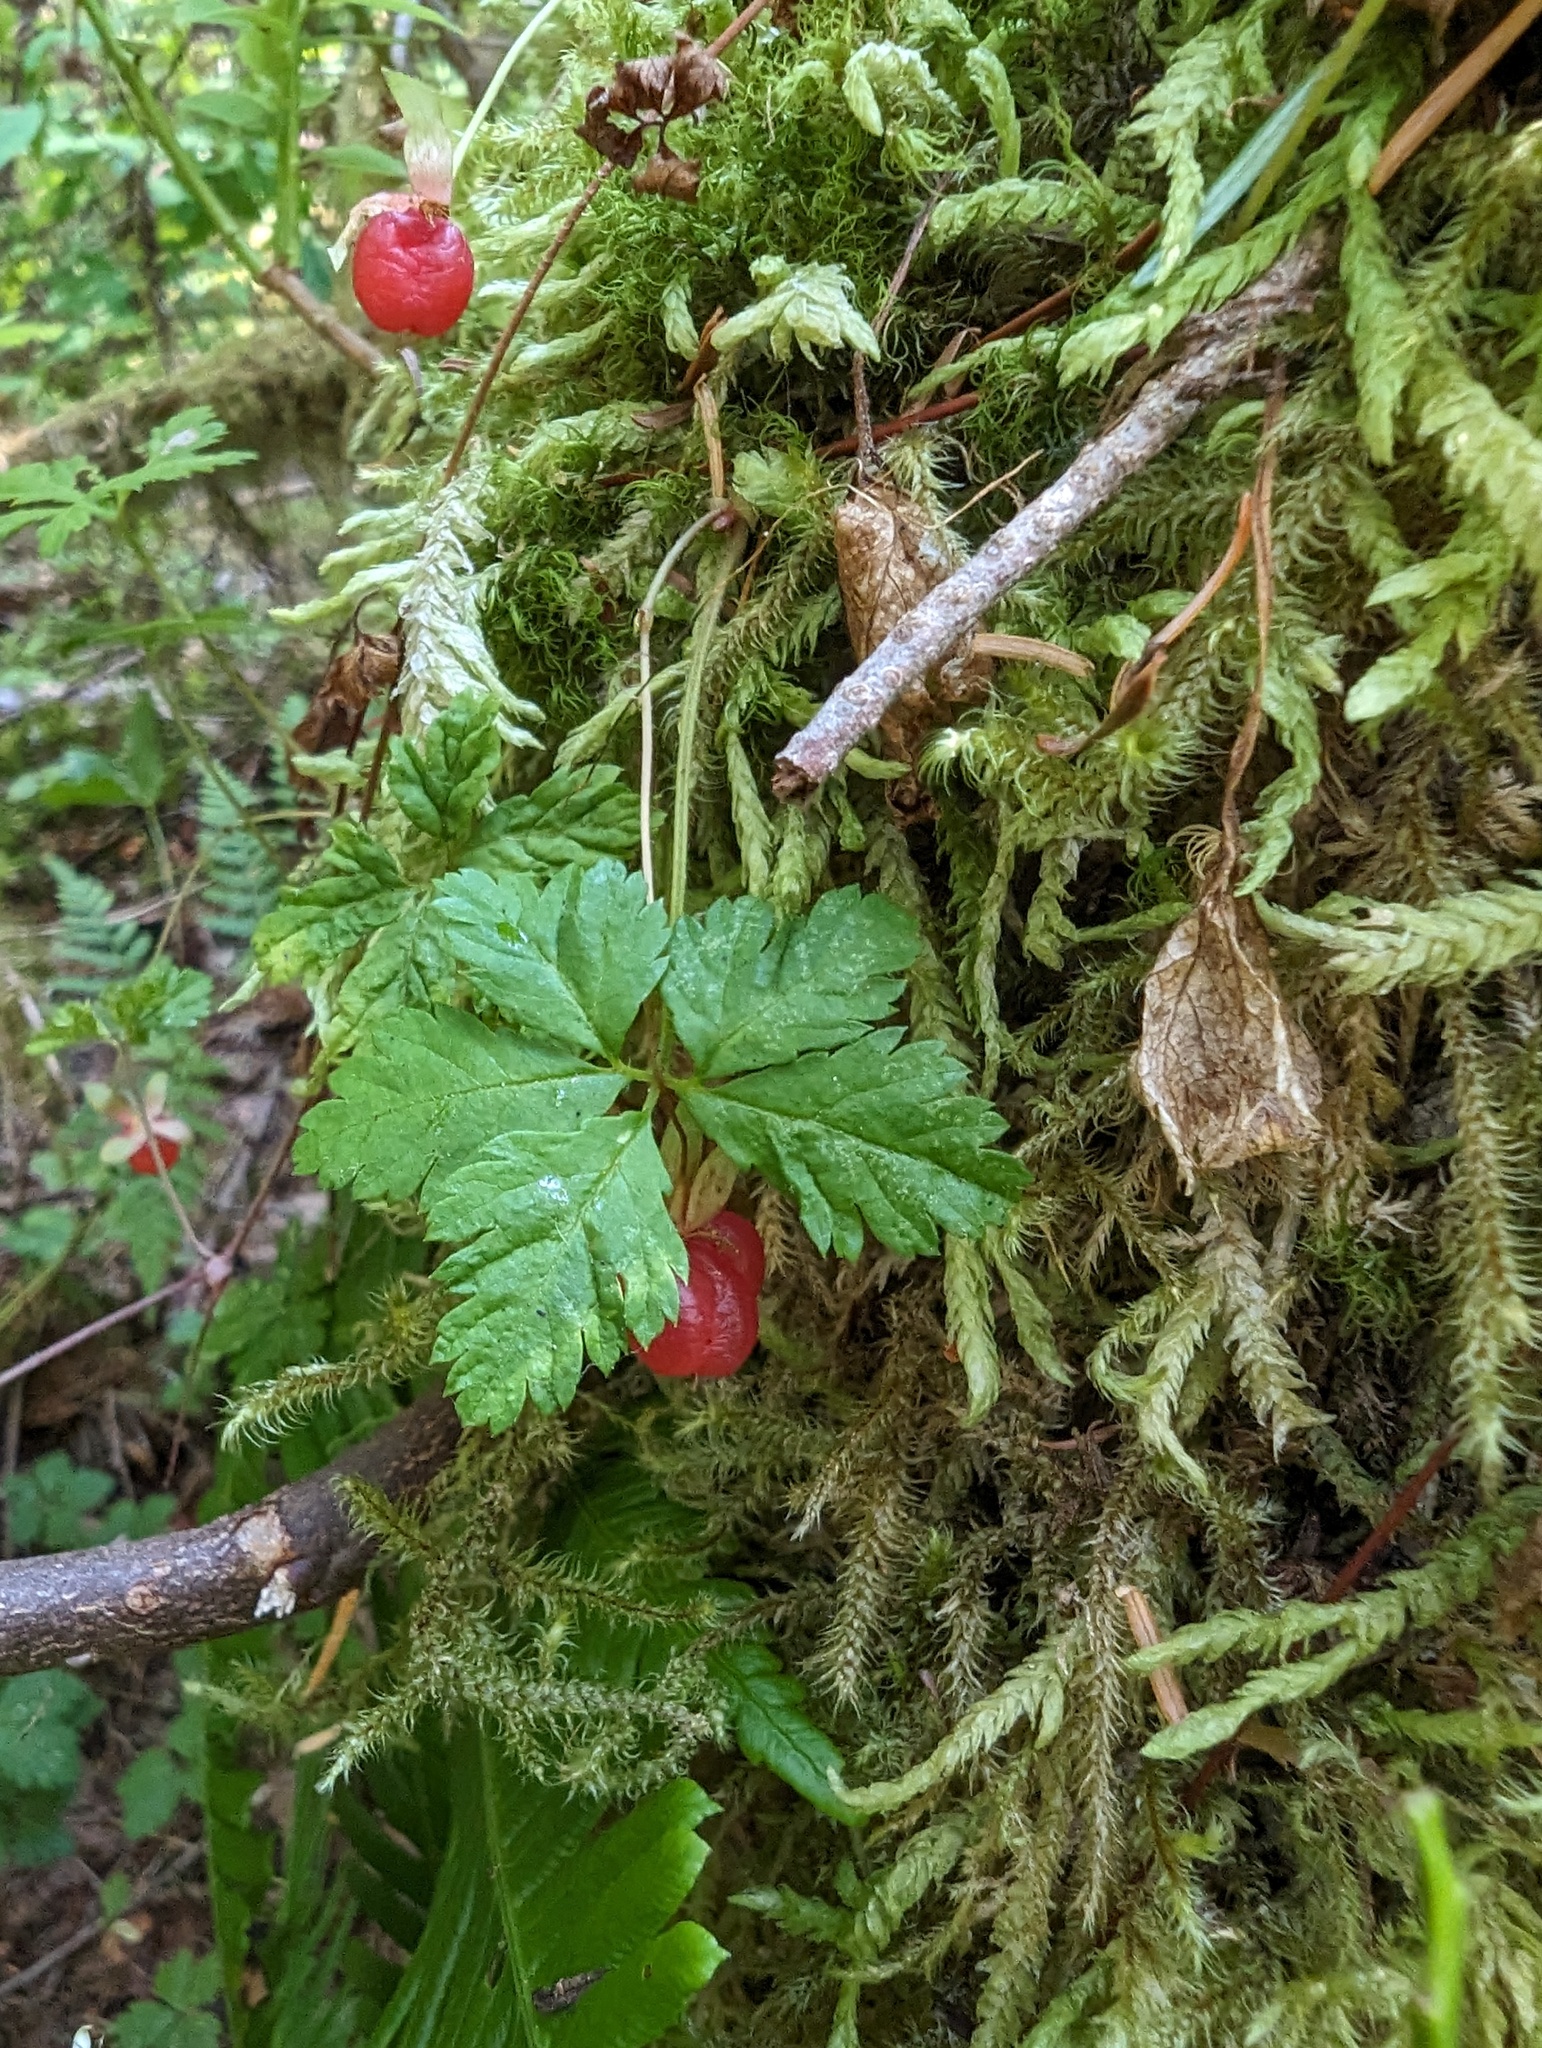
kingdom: Plantae
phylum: Tracheophyta
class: Magnoliopsida
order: Rosales
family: Rosaceae
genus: Rubus
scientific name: Rubus pedatus
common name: Creeping raspberry
